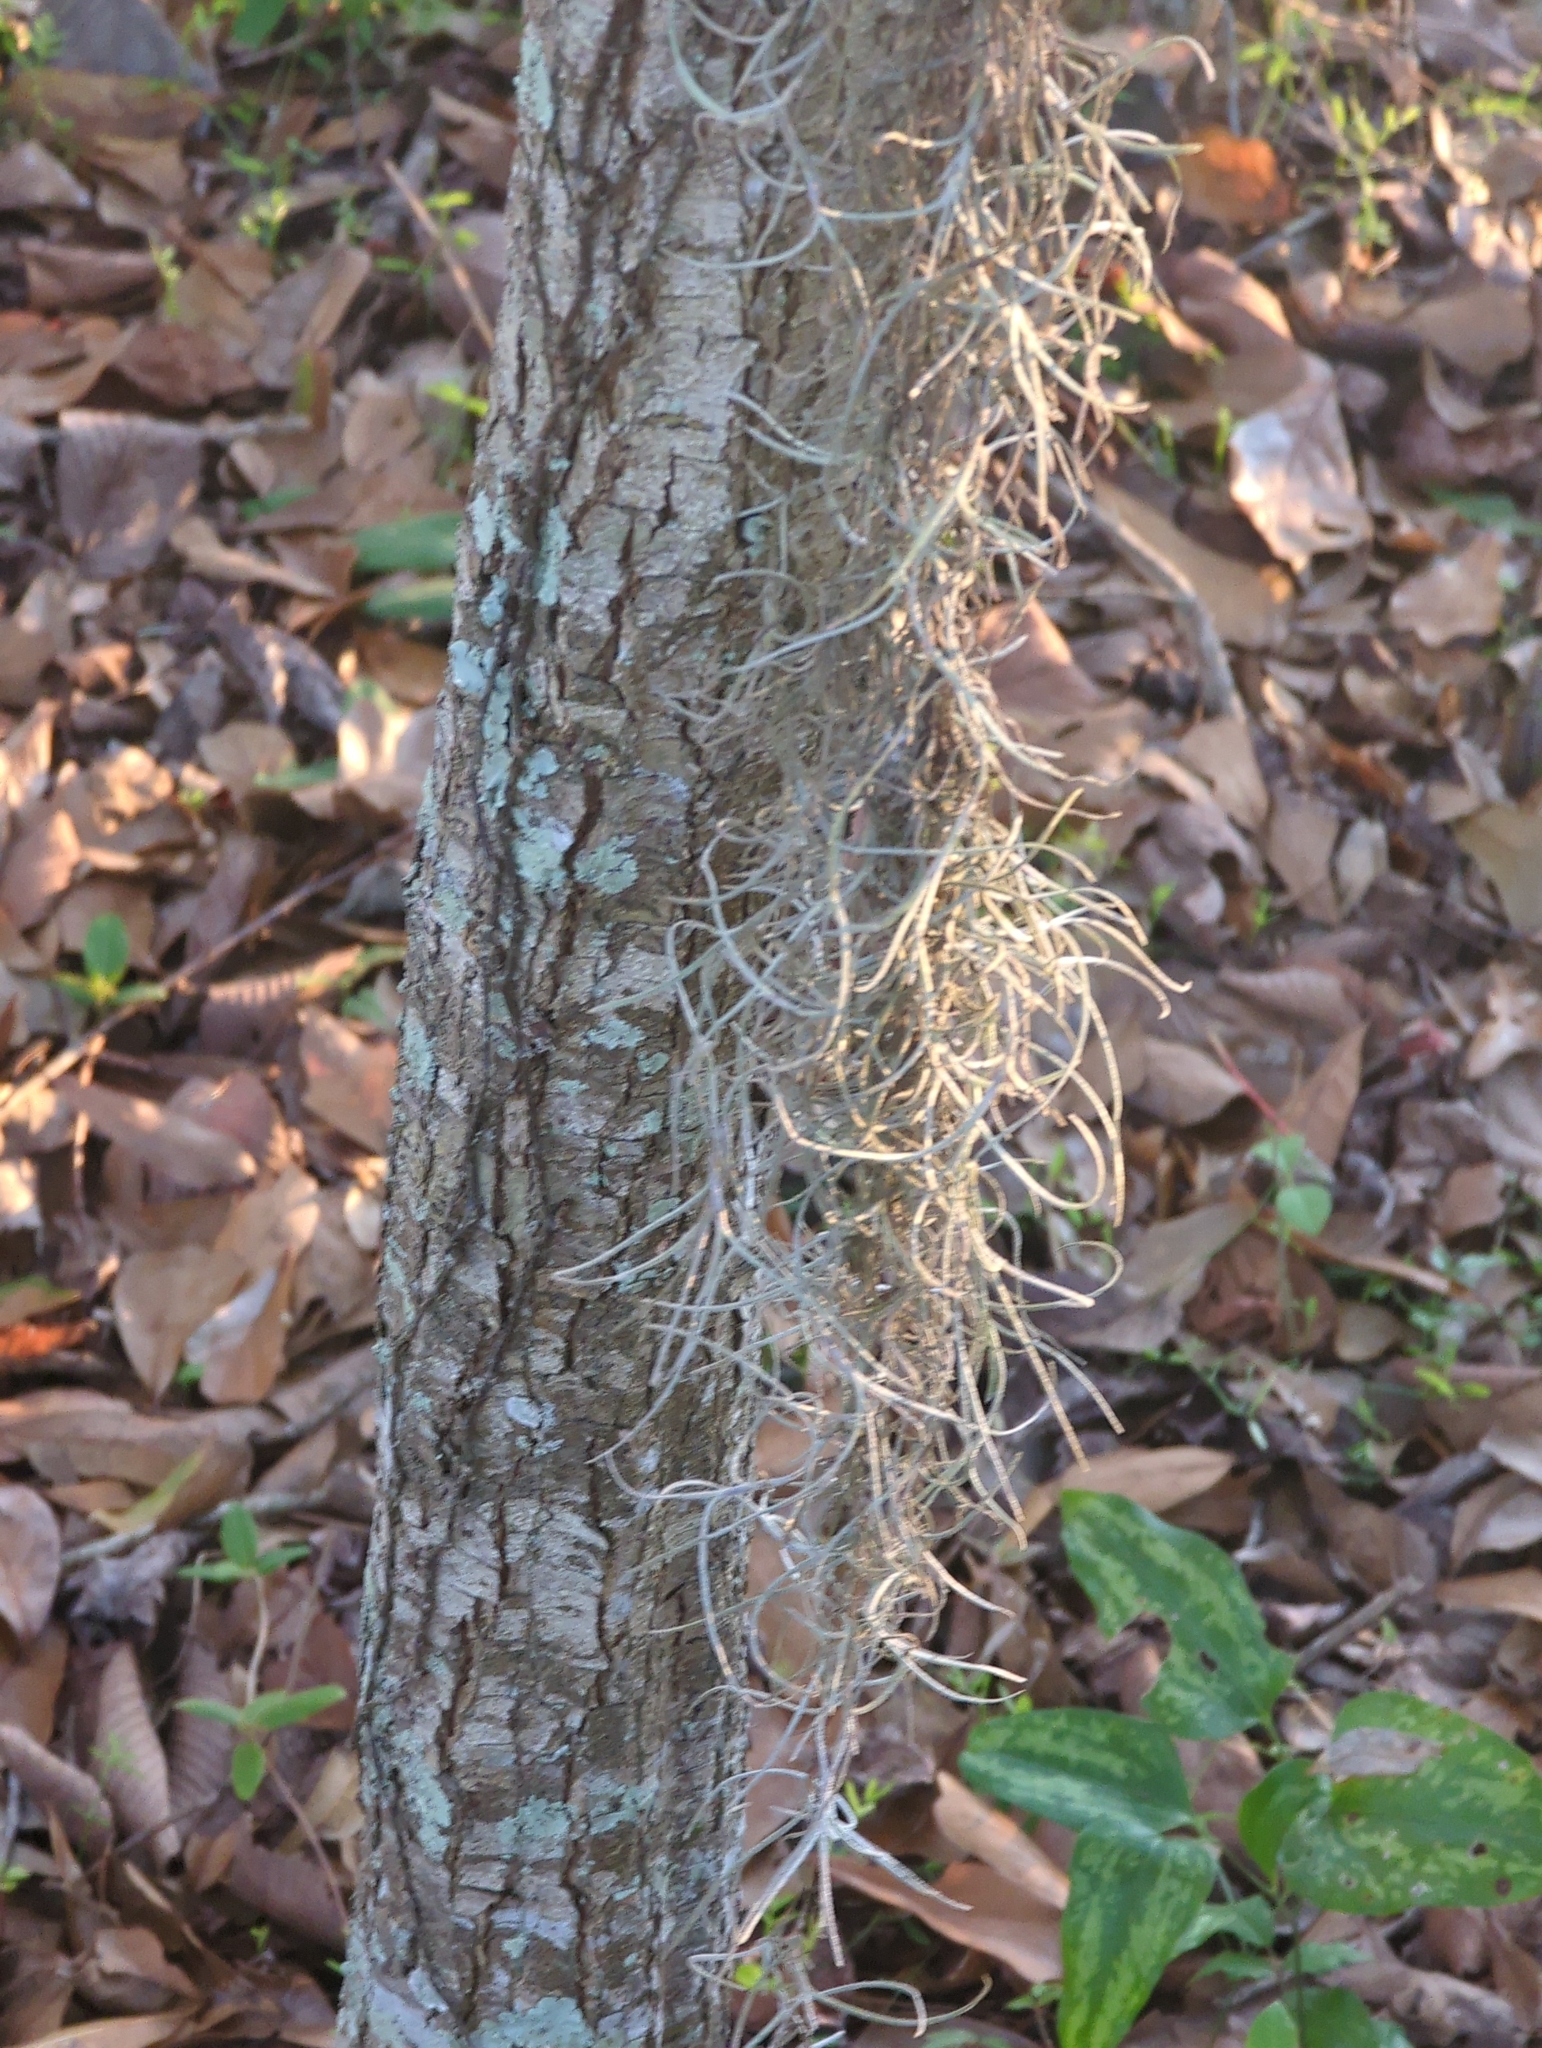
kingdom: Plantae
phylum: Tracheophyta
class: Liliopsida
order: Poales
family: Bromeliaceae
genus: Tillandsia
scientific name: Tillandsia usneoides
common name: Spanish moss
